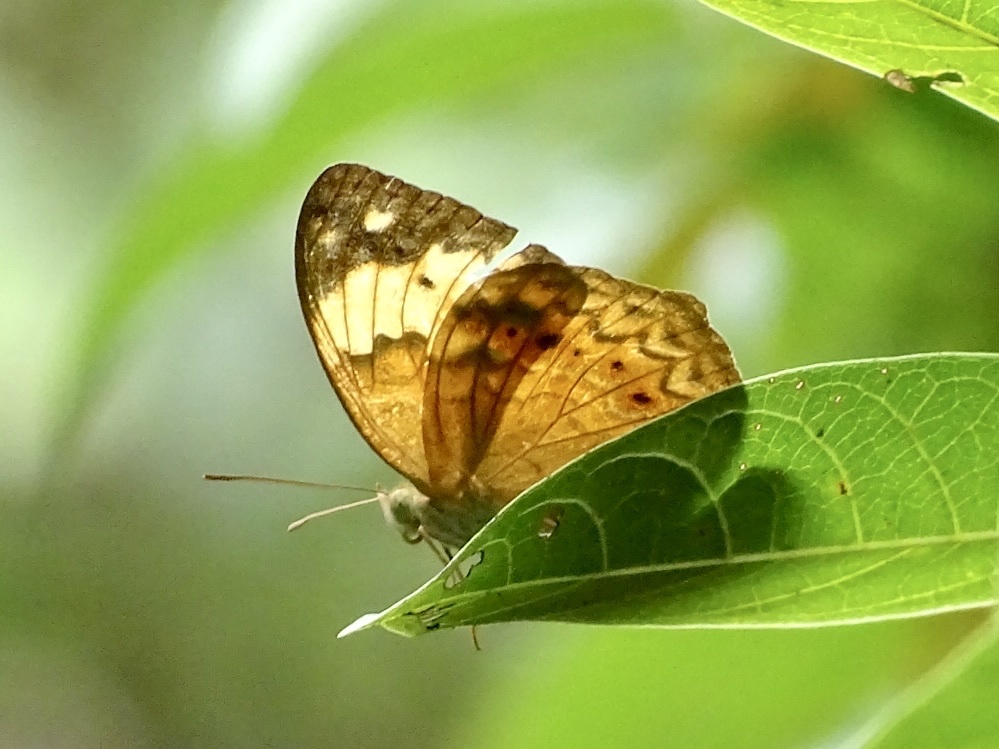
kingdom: Animalia
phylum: Arthropoda
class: Insecta
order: Lepidoptera
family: Nymphalidae
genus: Cupha
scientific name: Cupha erymanthis
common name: Rustic
